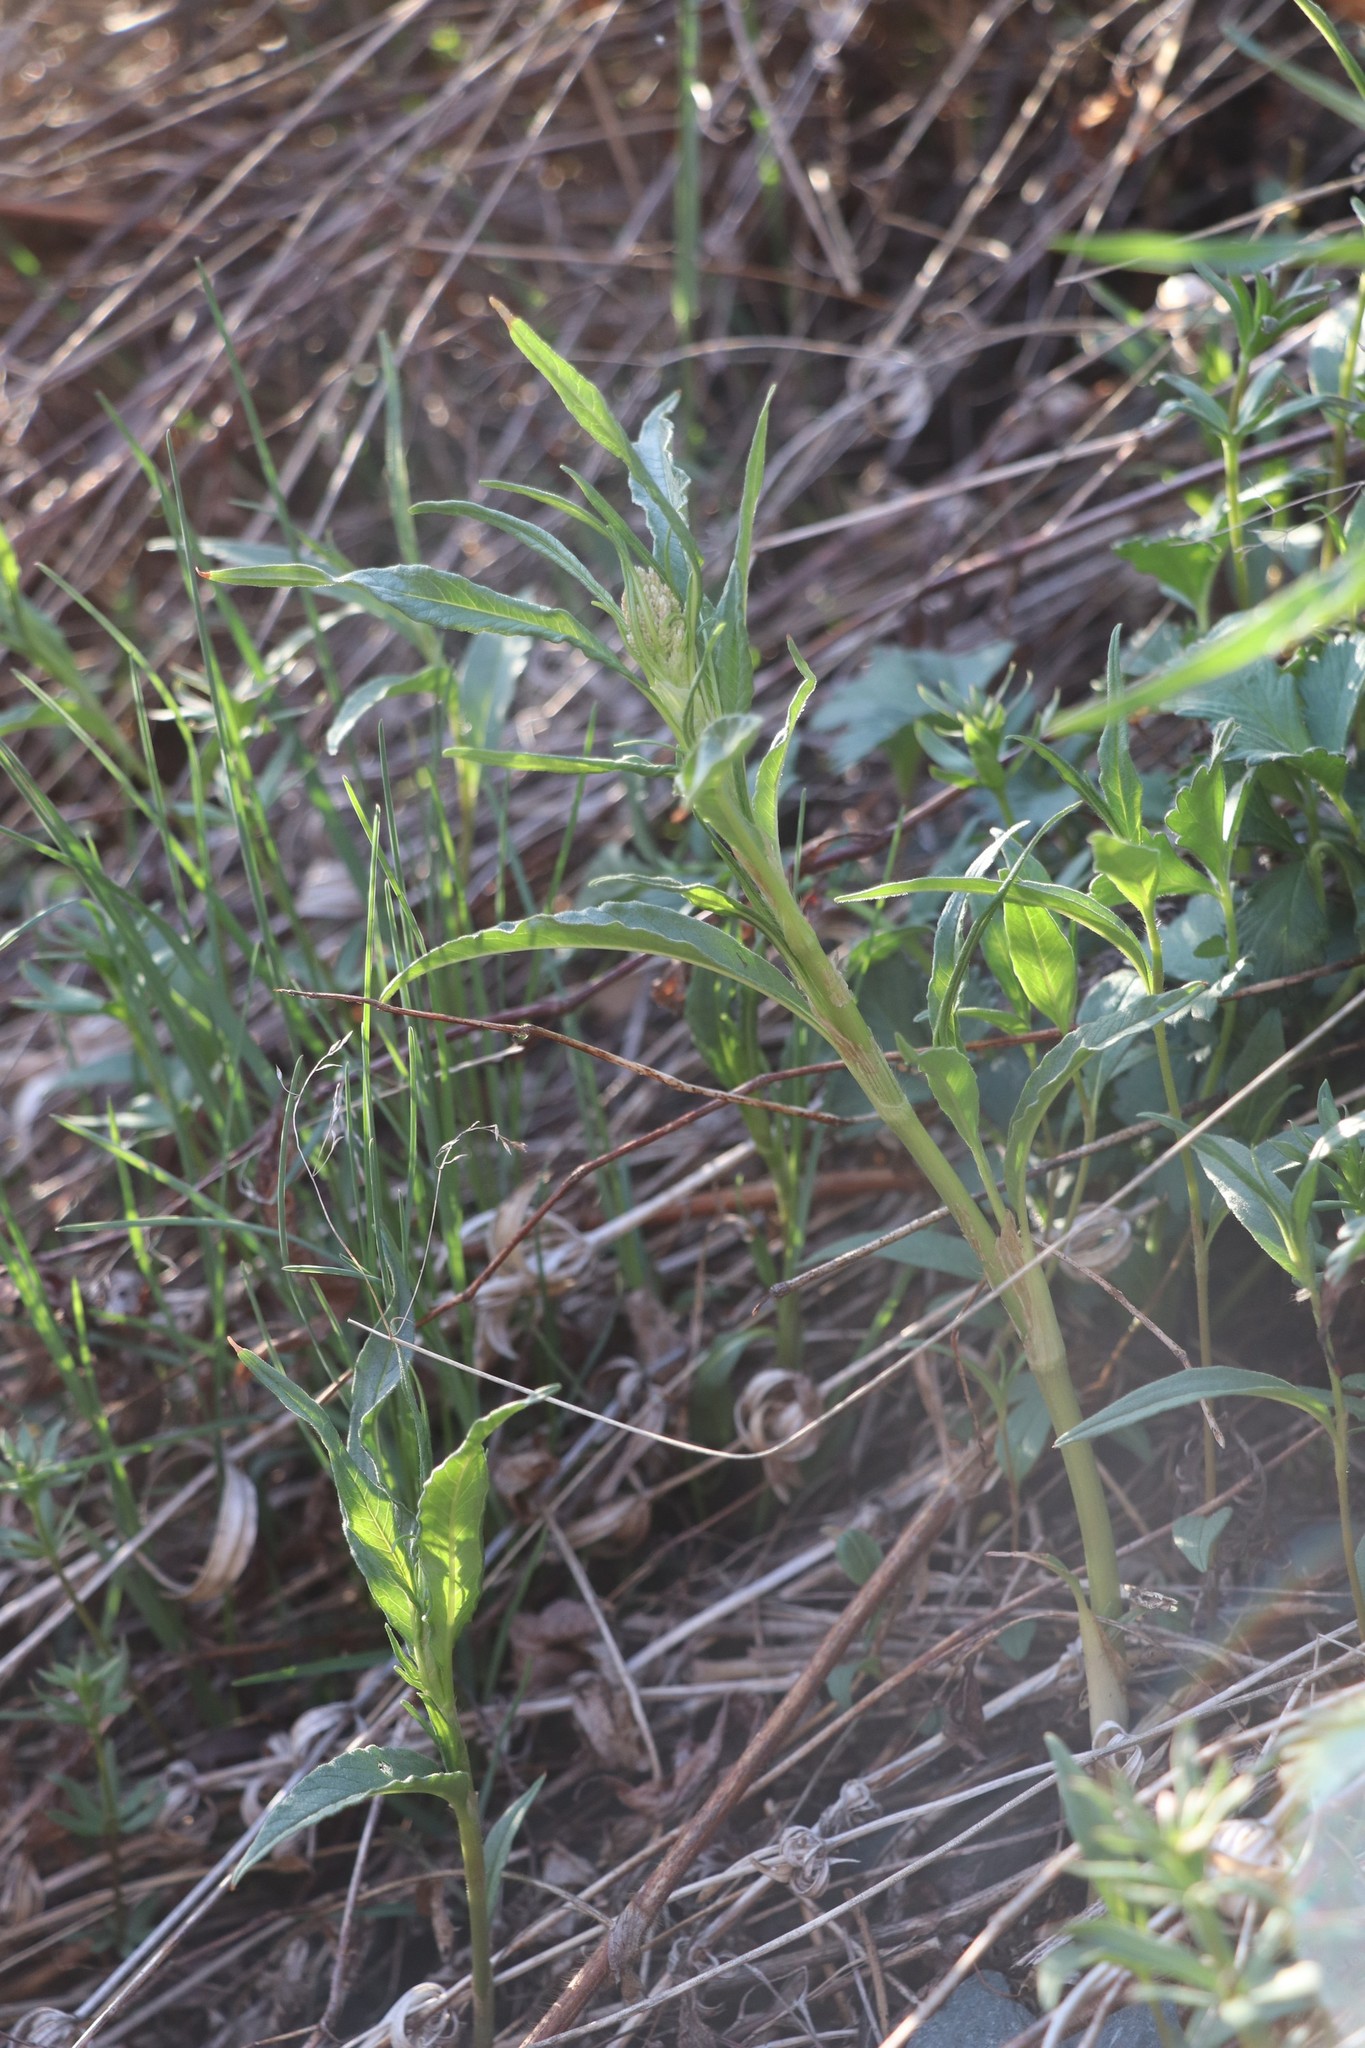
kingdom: Plantae
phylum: Tracheophyta
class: Magnoliopsida
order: Caryophyllales
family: Polygonaceae
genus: Koenigia
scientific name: Koenigia alpina
